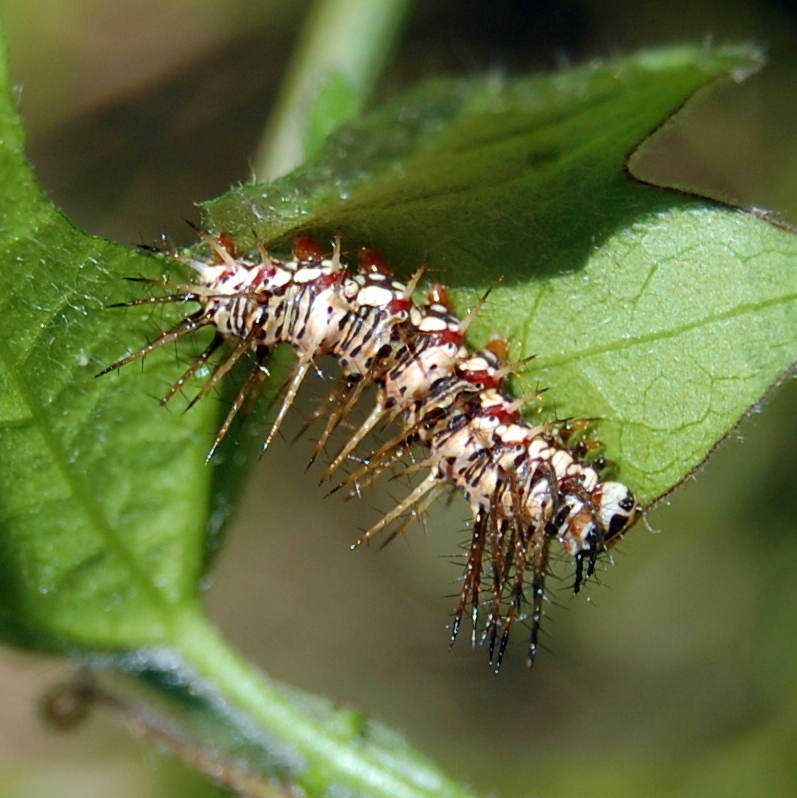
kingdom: Animalia
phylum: Arthropoda
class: Insecta
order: Lepidoptera
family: Nymphalidae
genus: Dryas
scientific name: Dryas iulia
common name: Flambeau
